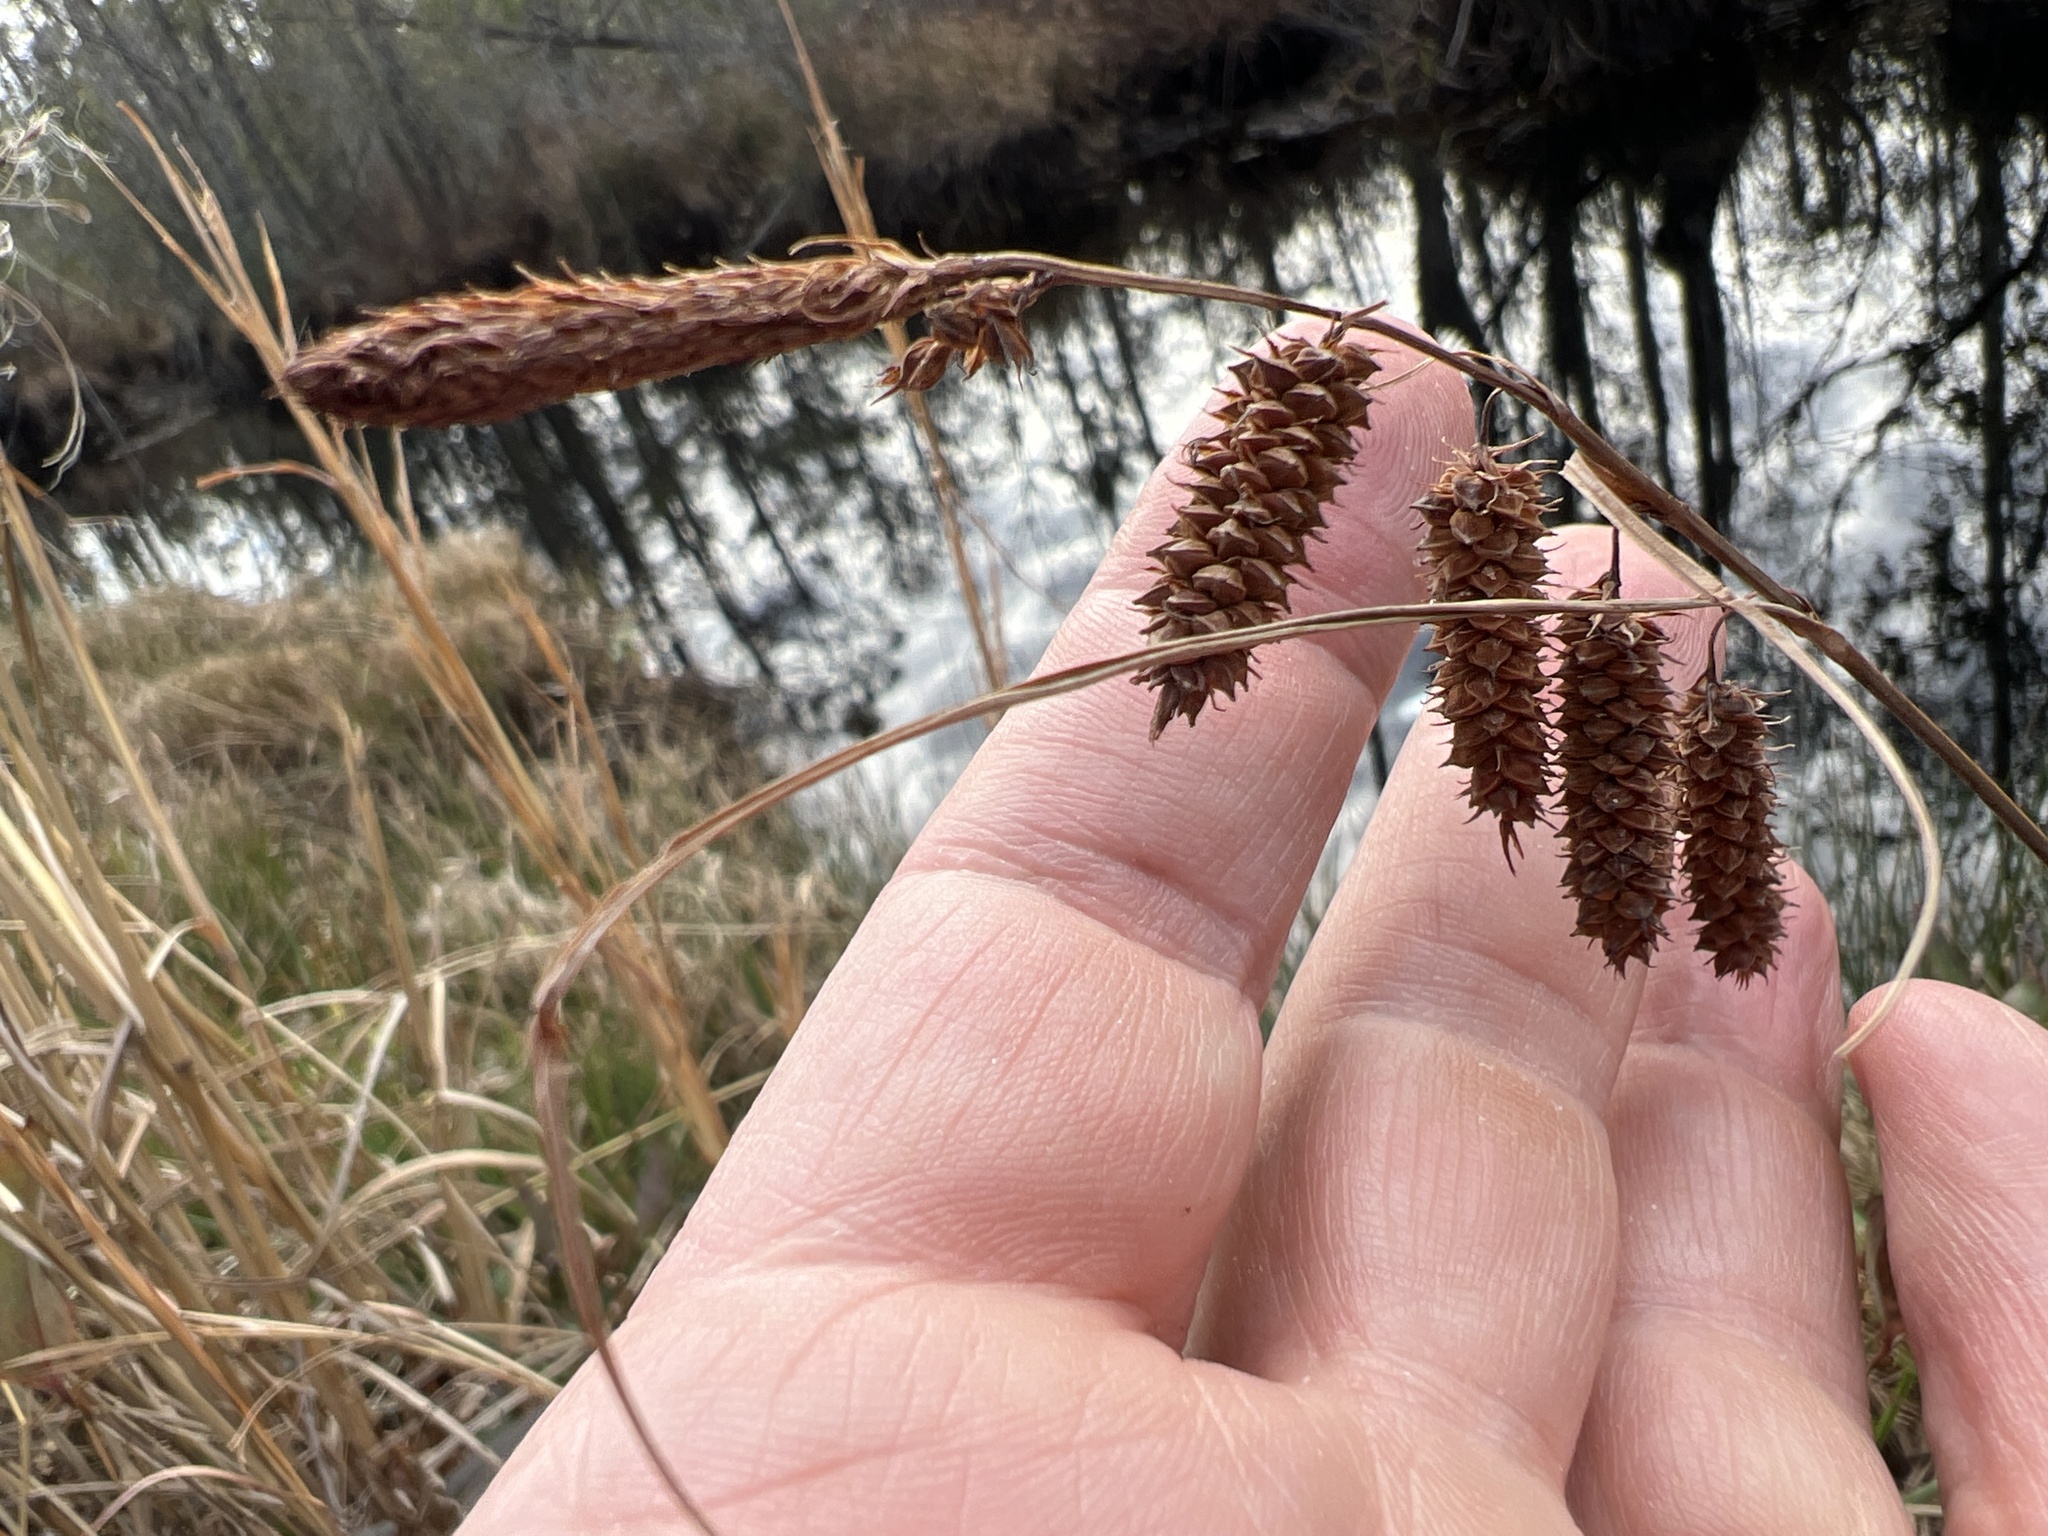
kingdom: Plantae
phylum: Tracheophyta
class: Liliopsida
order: Poales
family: Cyperaceae
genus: Carex
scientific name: Carex glaucescens
